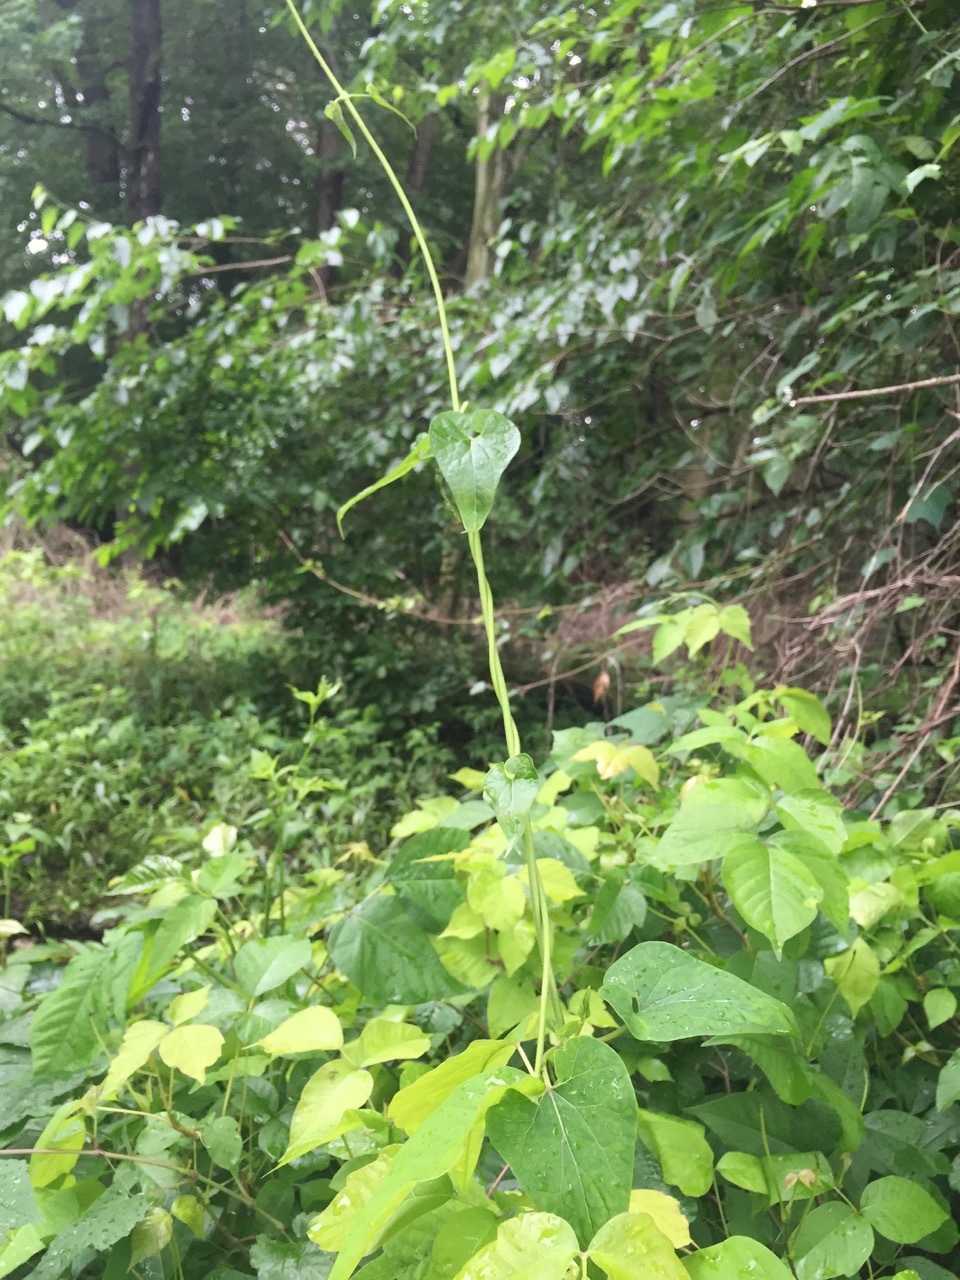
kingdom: Plantae
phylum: Tracheophyta
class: Magnoliopsida
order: Gentianales
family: Apocynaceae
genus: Cynanchum
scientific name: Cynanchum laeve
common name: Sandvine
